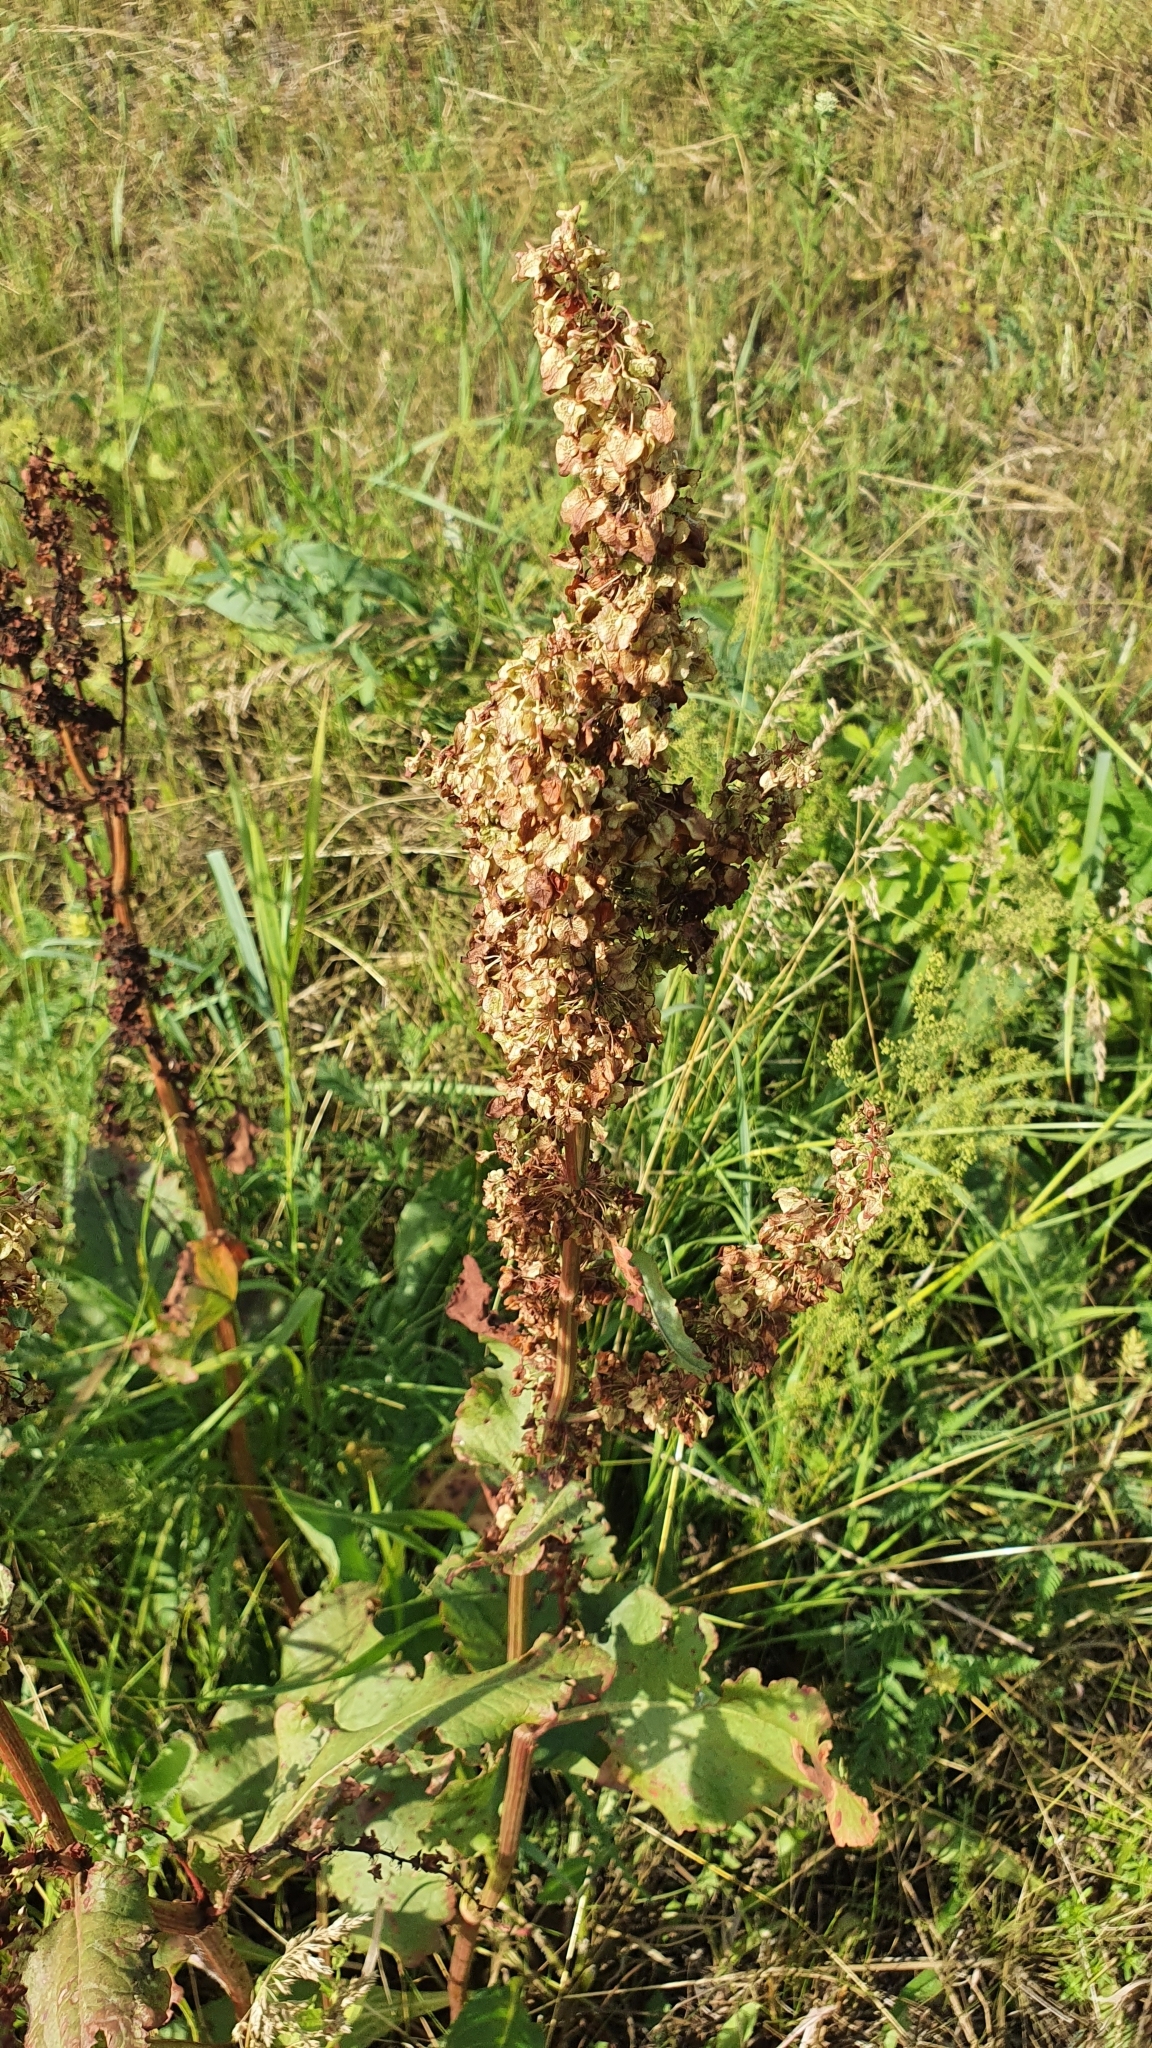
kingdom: Plantae
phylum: Tracheophyta
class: Magnoliopsida
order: Caryophyllales
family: Polygonaceae
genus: Rumex
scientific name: Rumex confertus
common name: Russian dock
